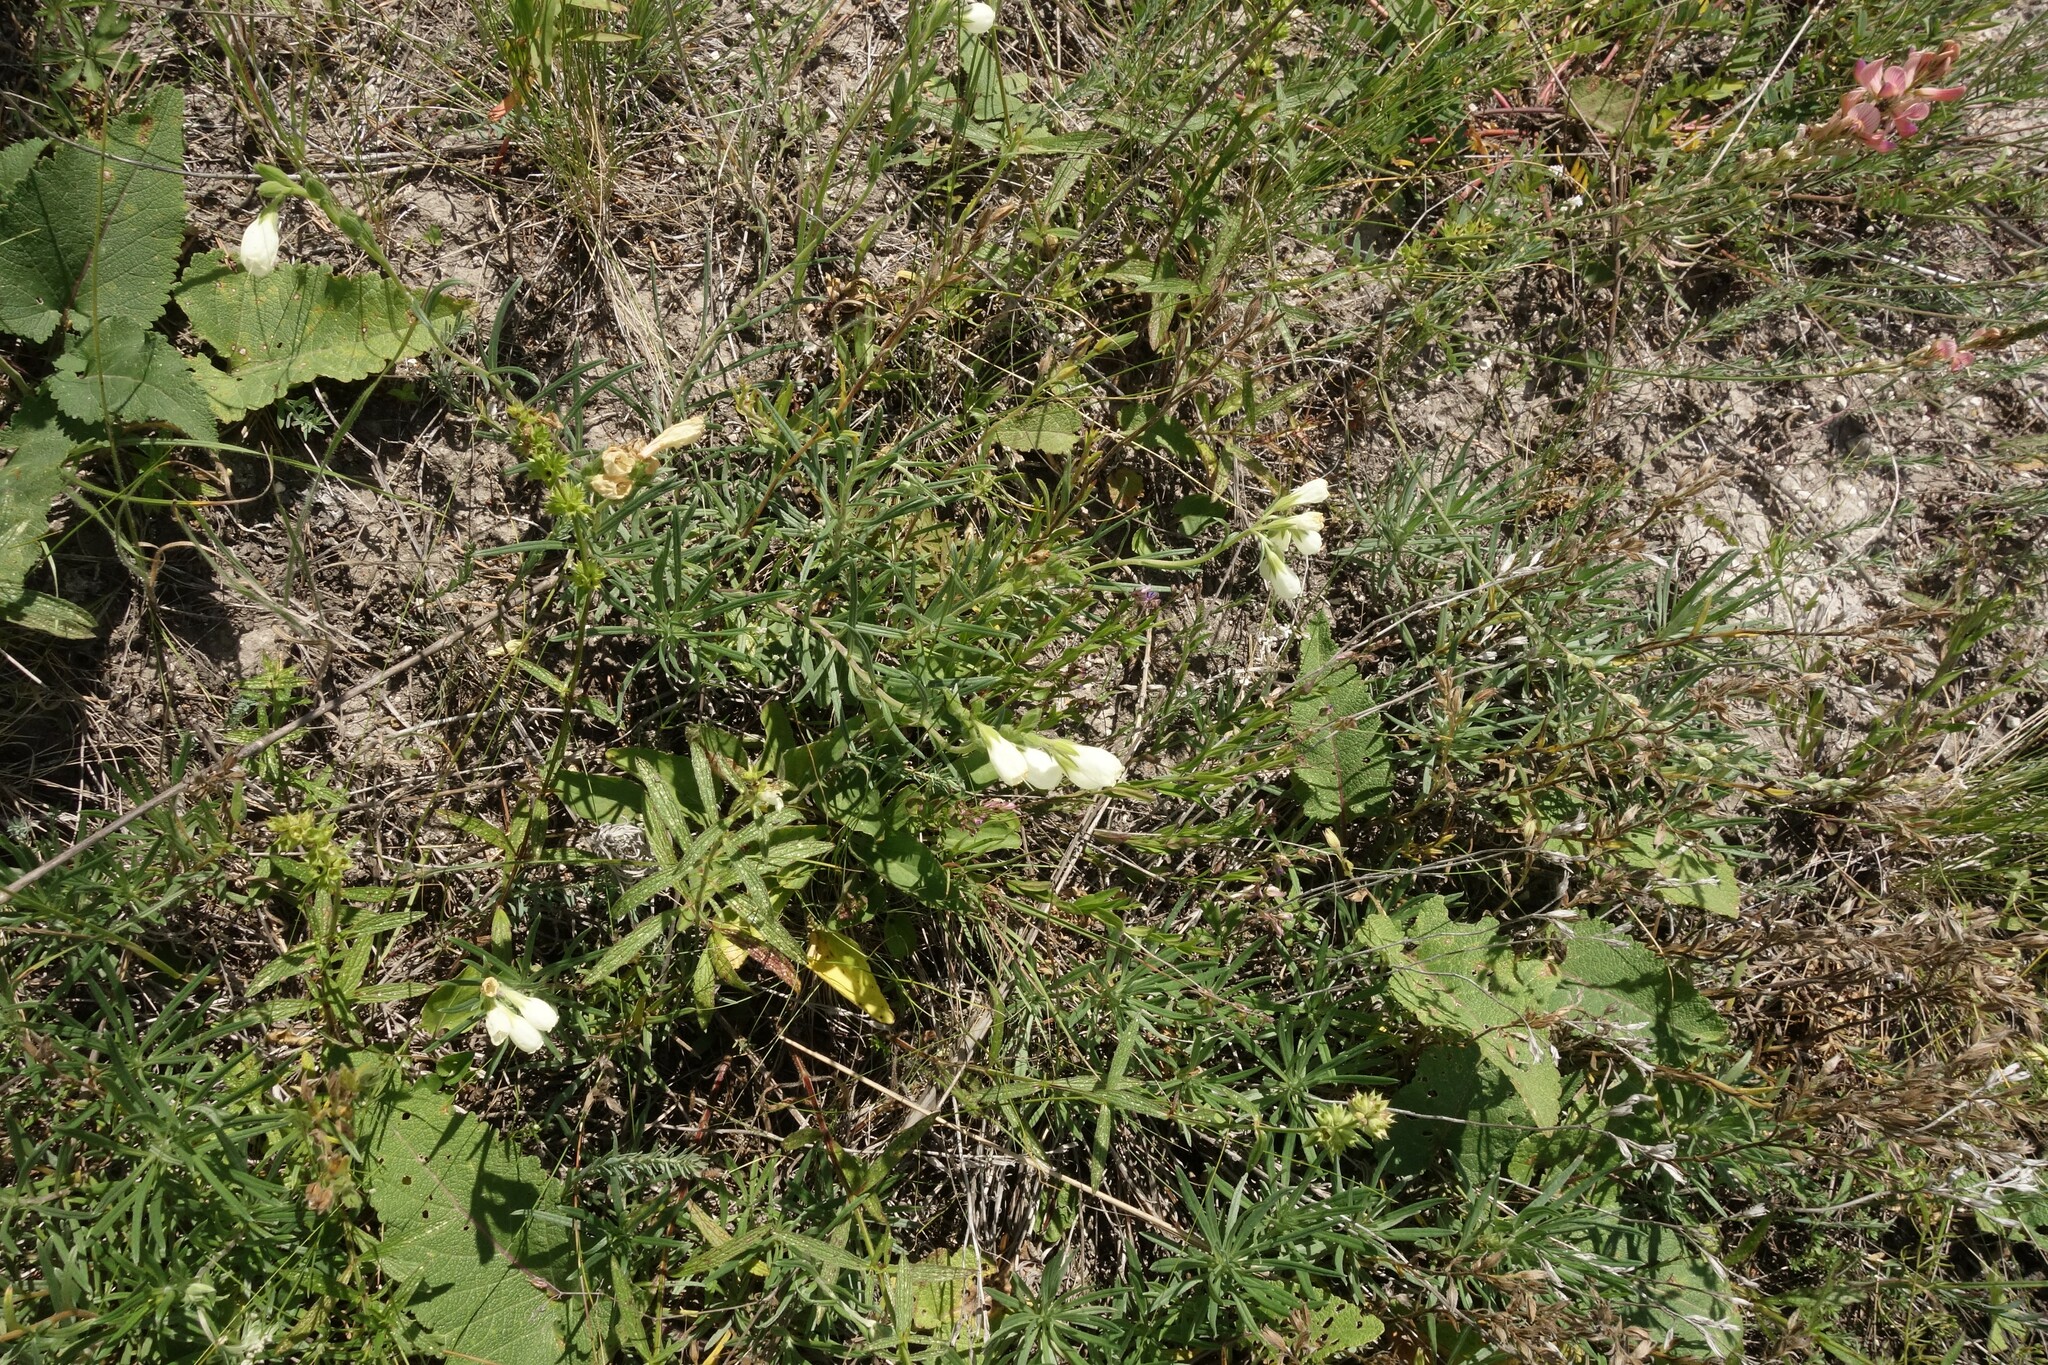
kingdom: Plantae
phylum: Tracheophyta
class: Magnoliopsida
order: Boraginales
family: Boraginaceae
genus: Onosma
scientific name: Onosma simplicissima
